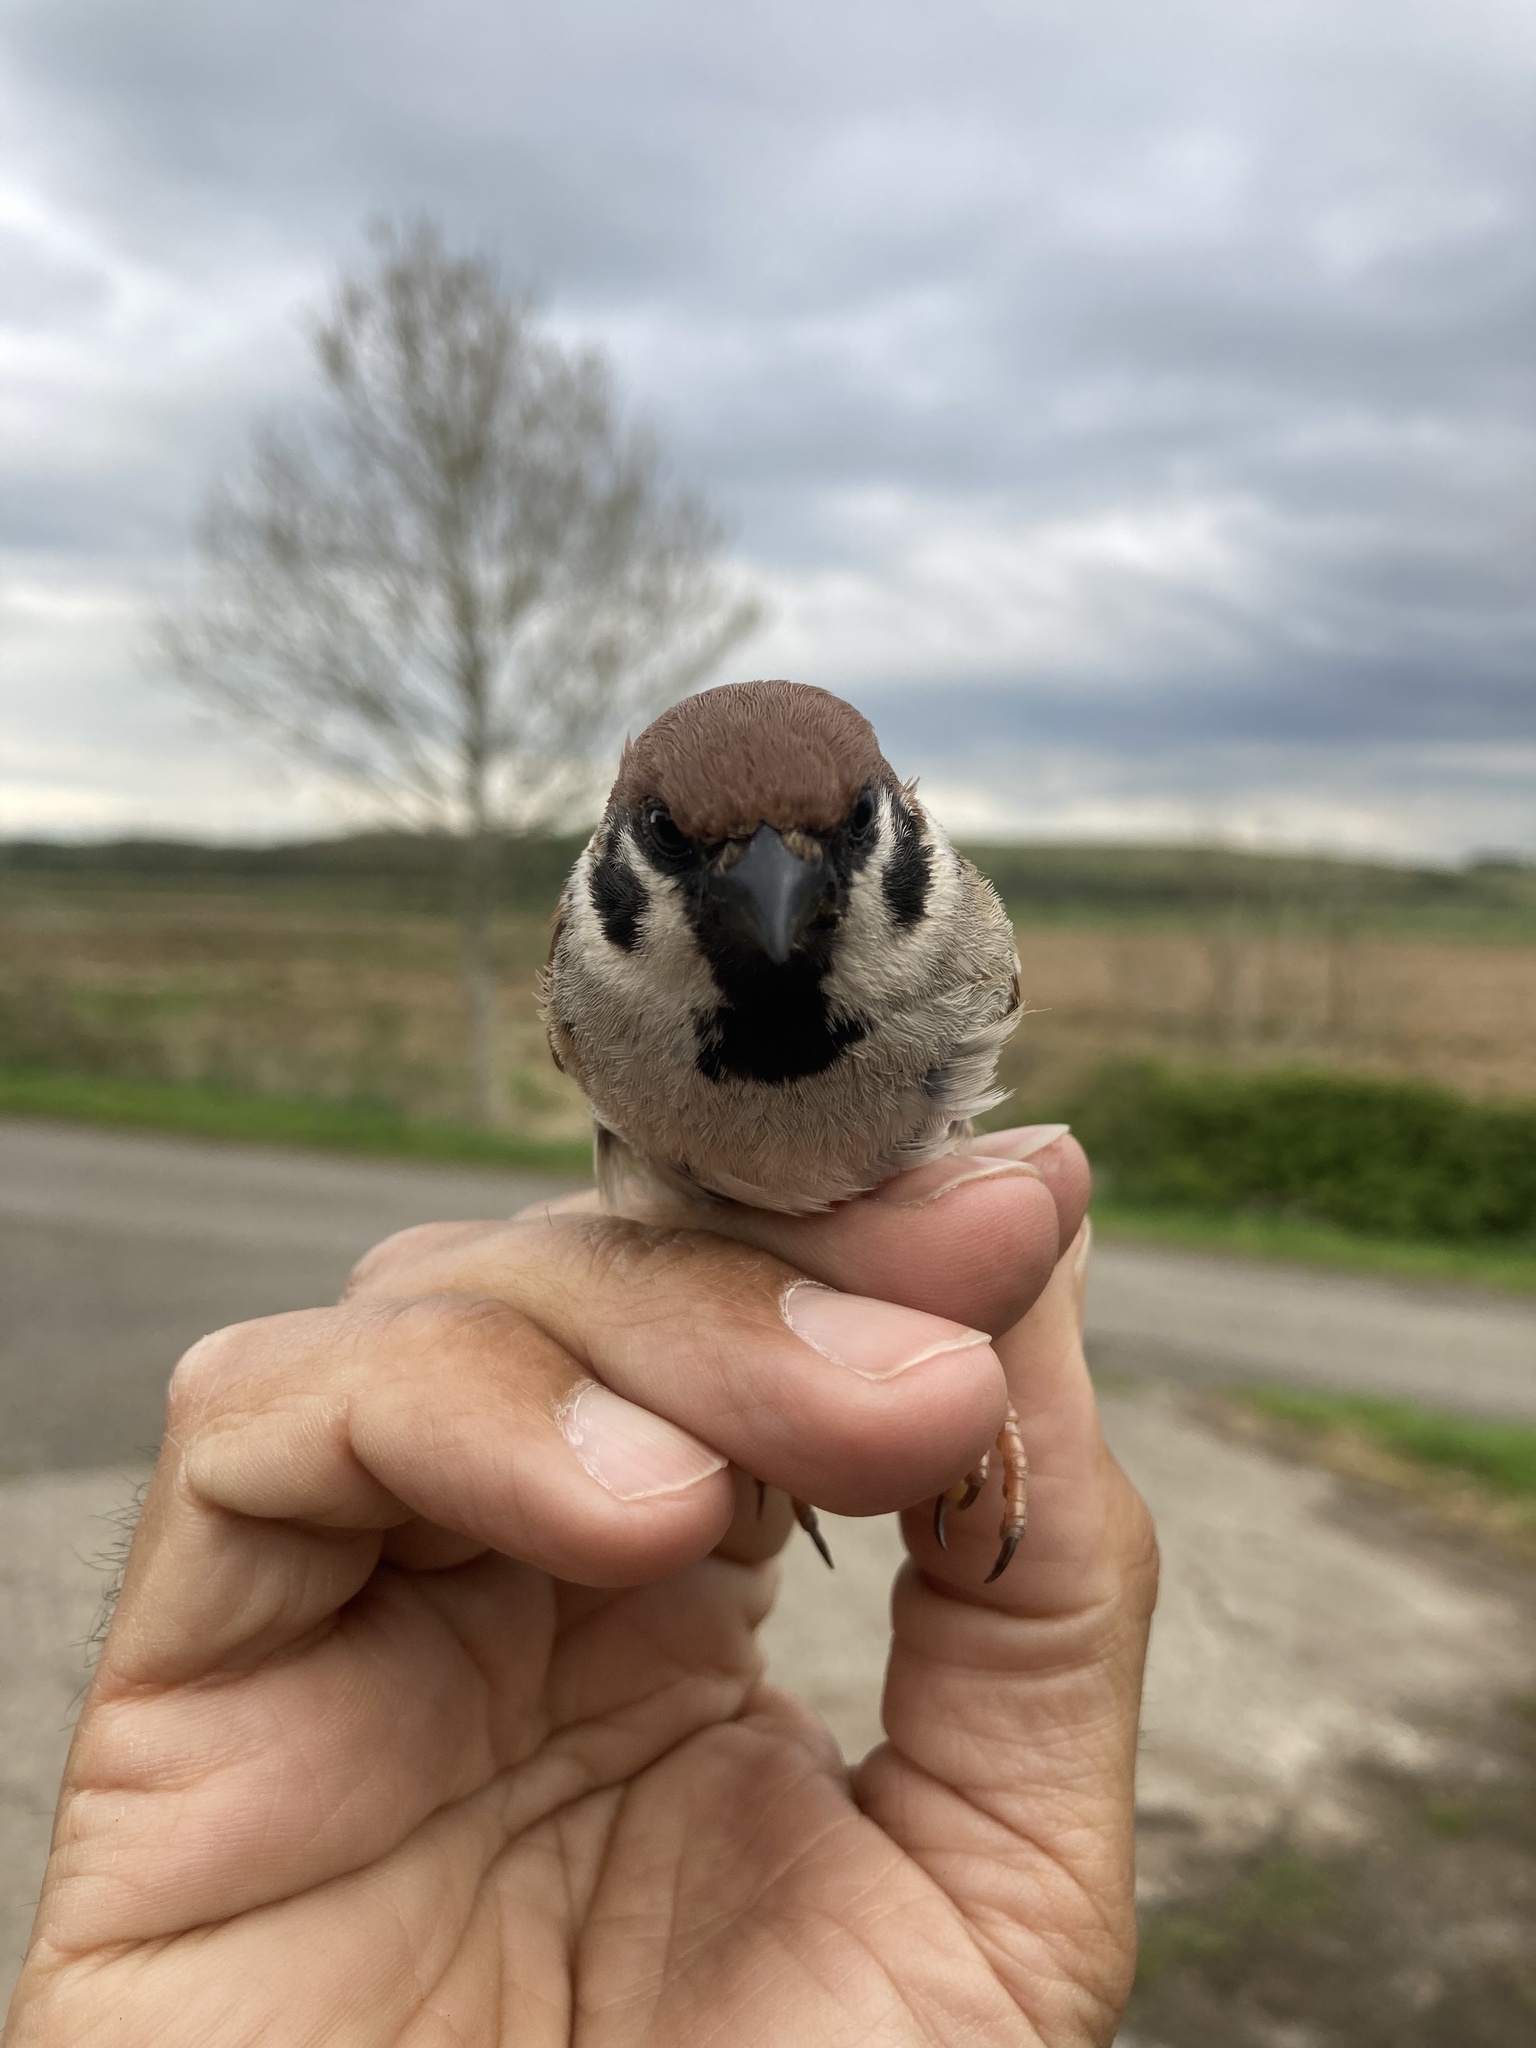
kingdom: Animalia
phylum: Chordata
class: Aves
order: Passeriformes
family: Passeridae
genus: Passer
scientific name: Passer montanus
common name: Eurasian tree sparrow
